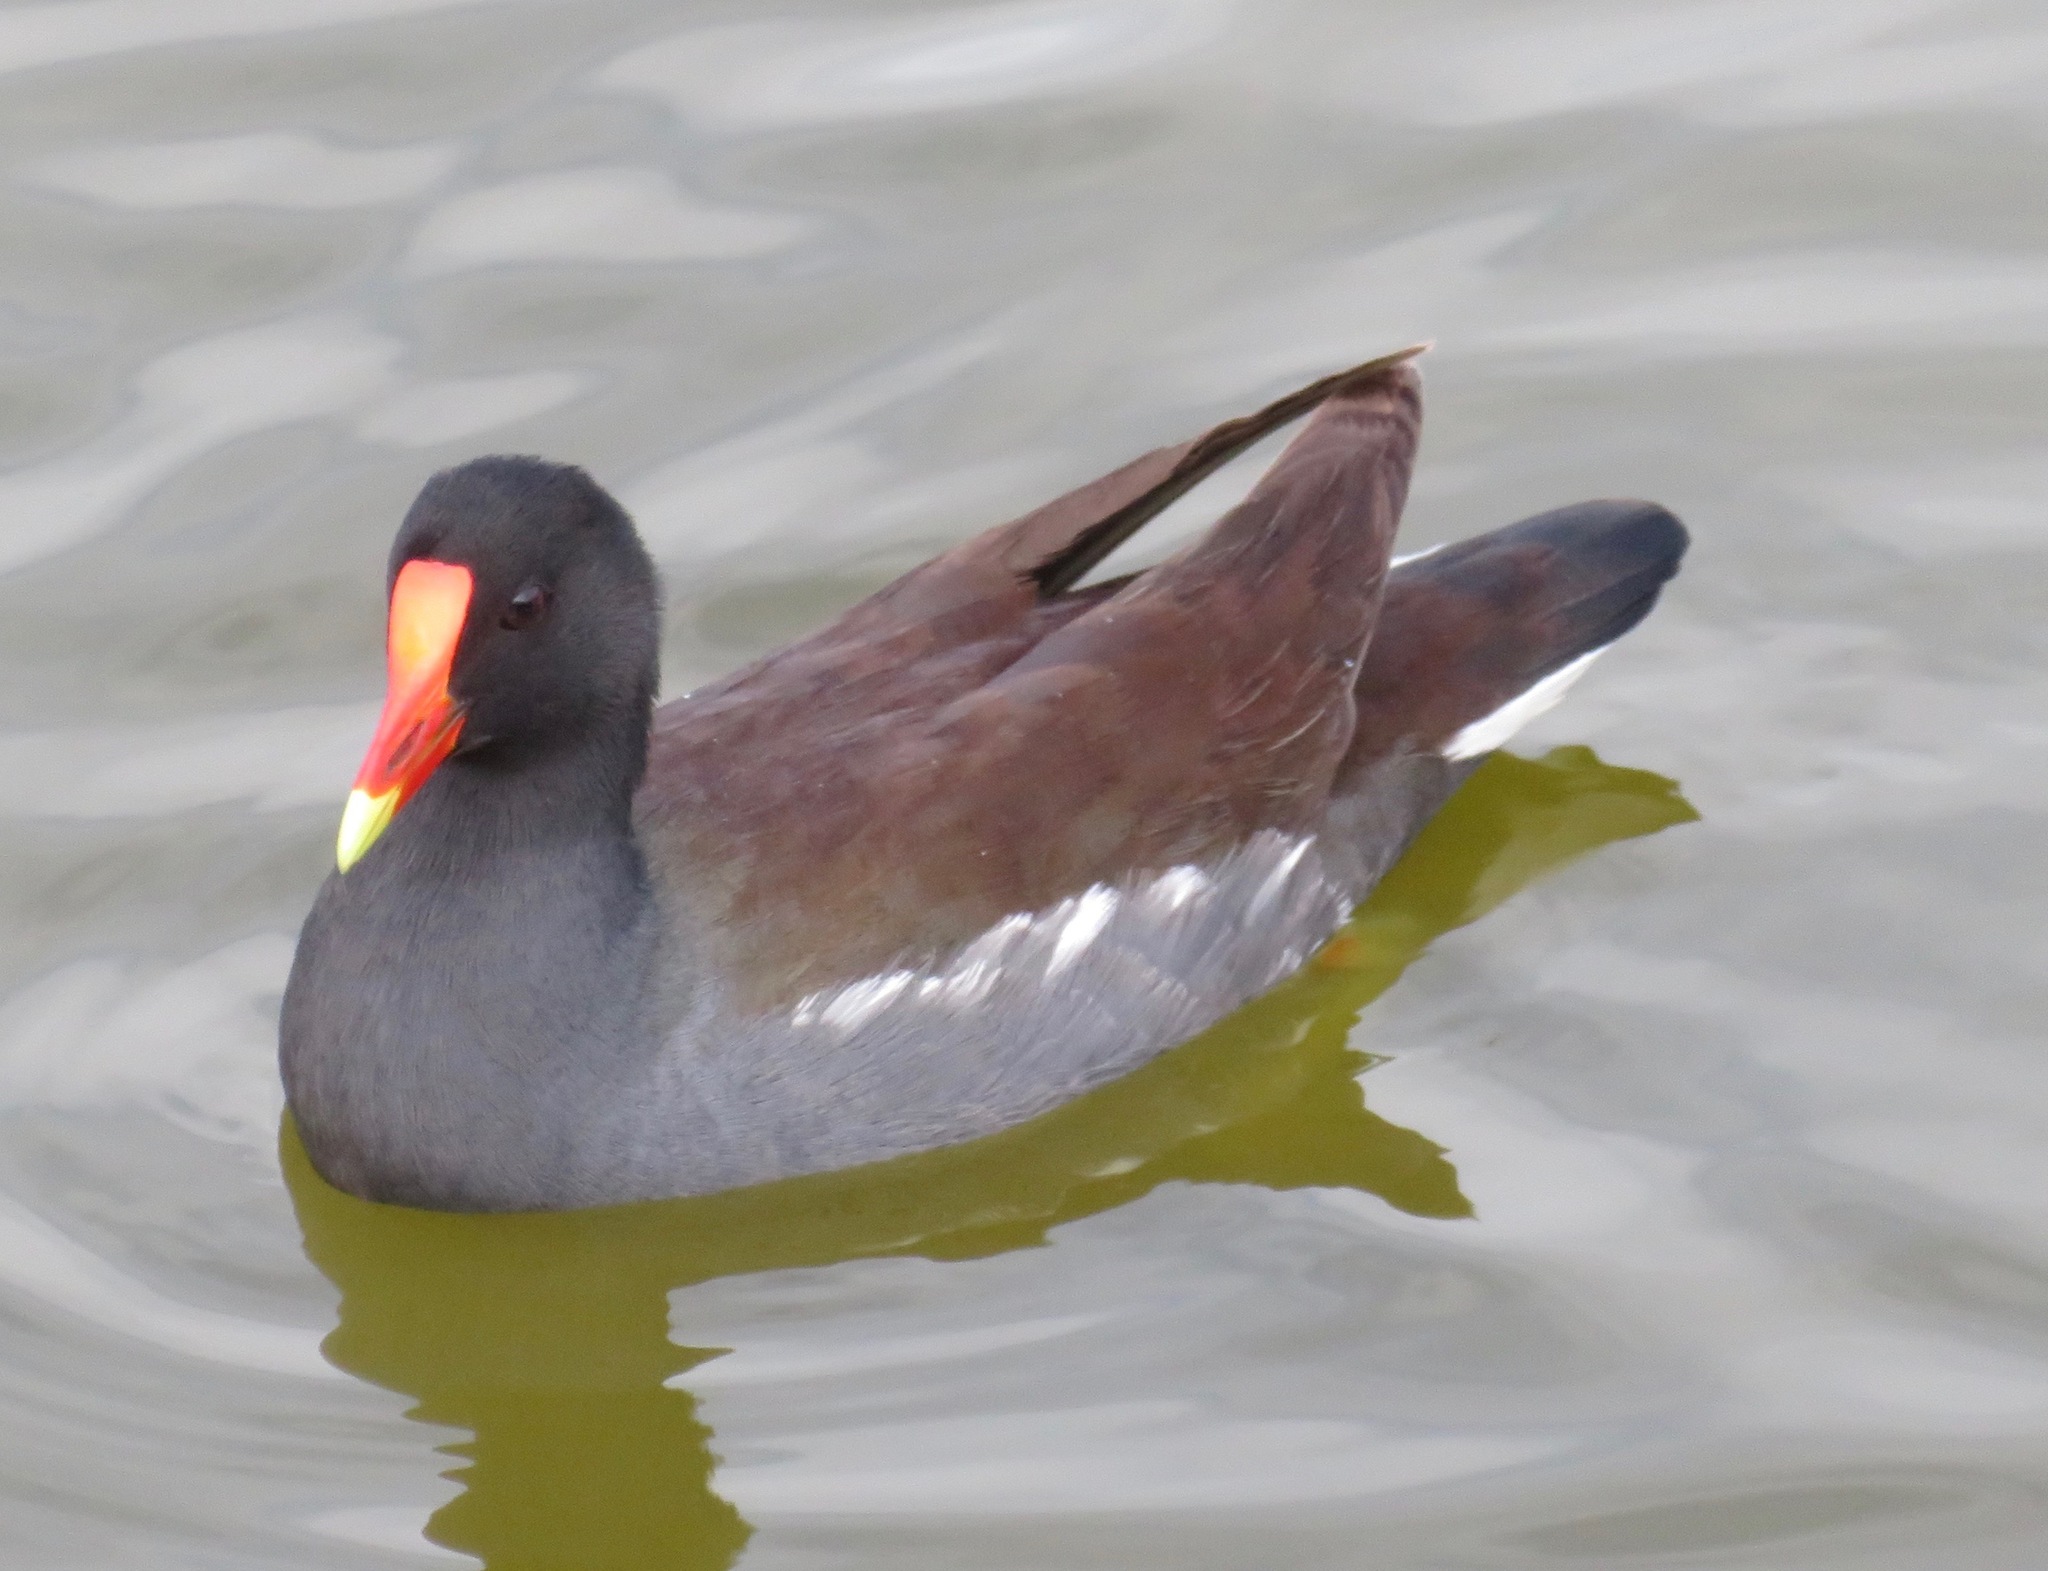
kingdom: Animalia
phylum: Chordata
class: Aves
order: Gruiformes
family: Rallidae
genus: Gallinula
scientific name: Gallinula chloropus
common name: Common moorhen
